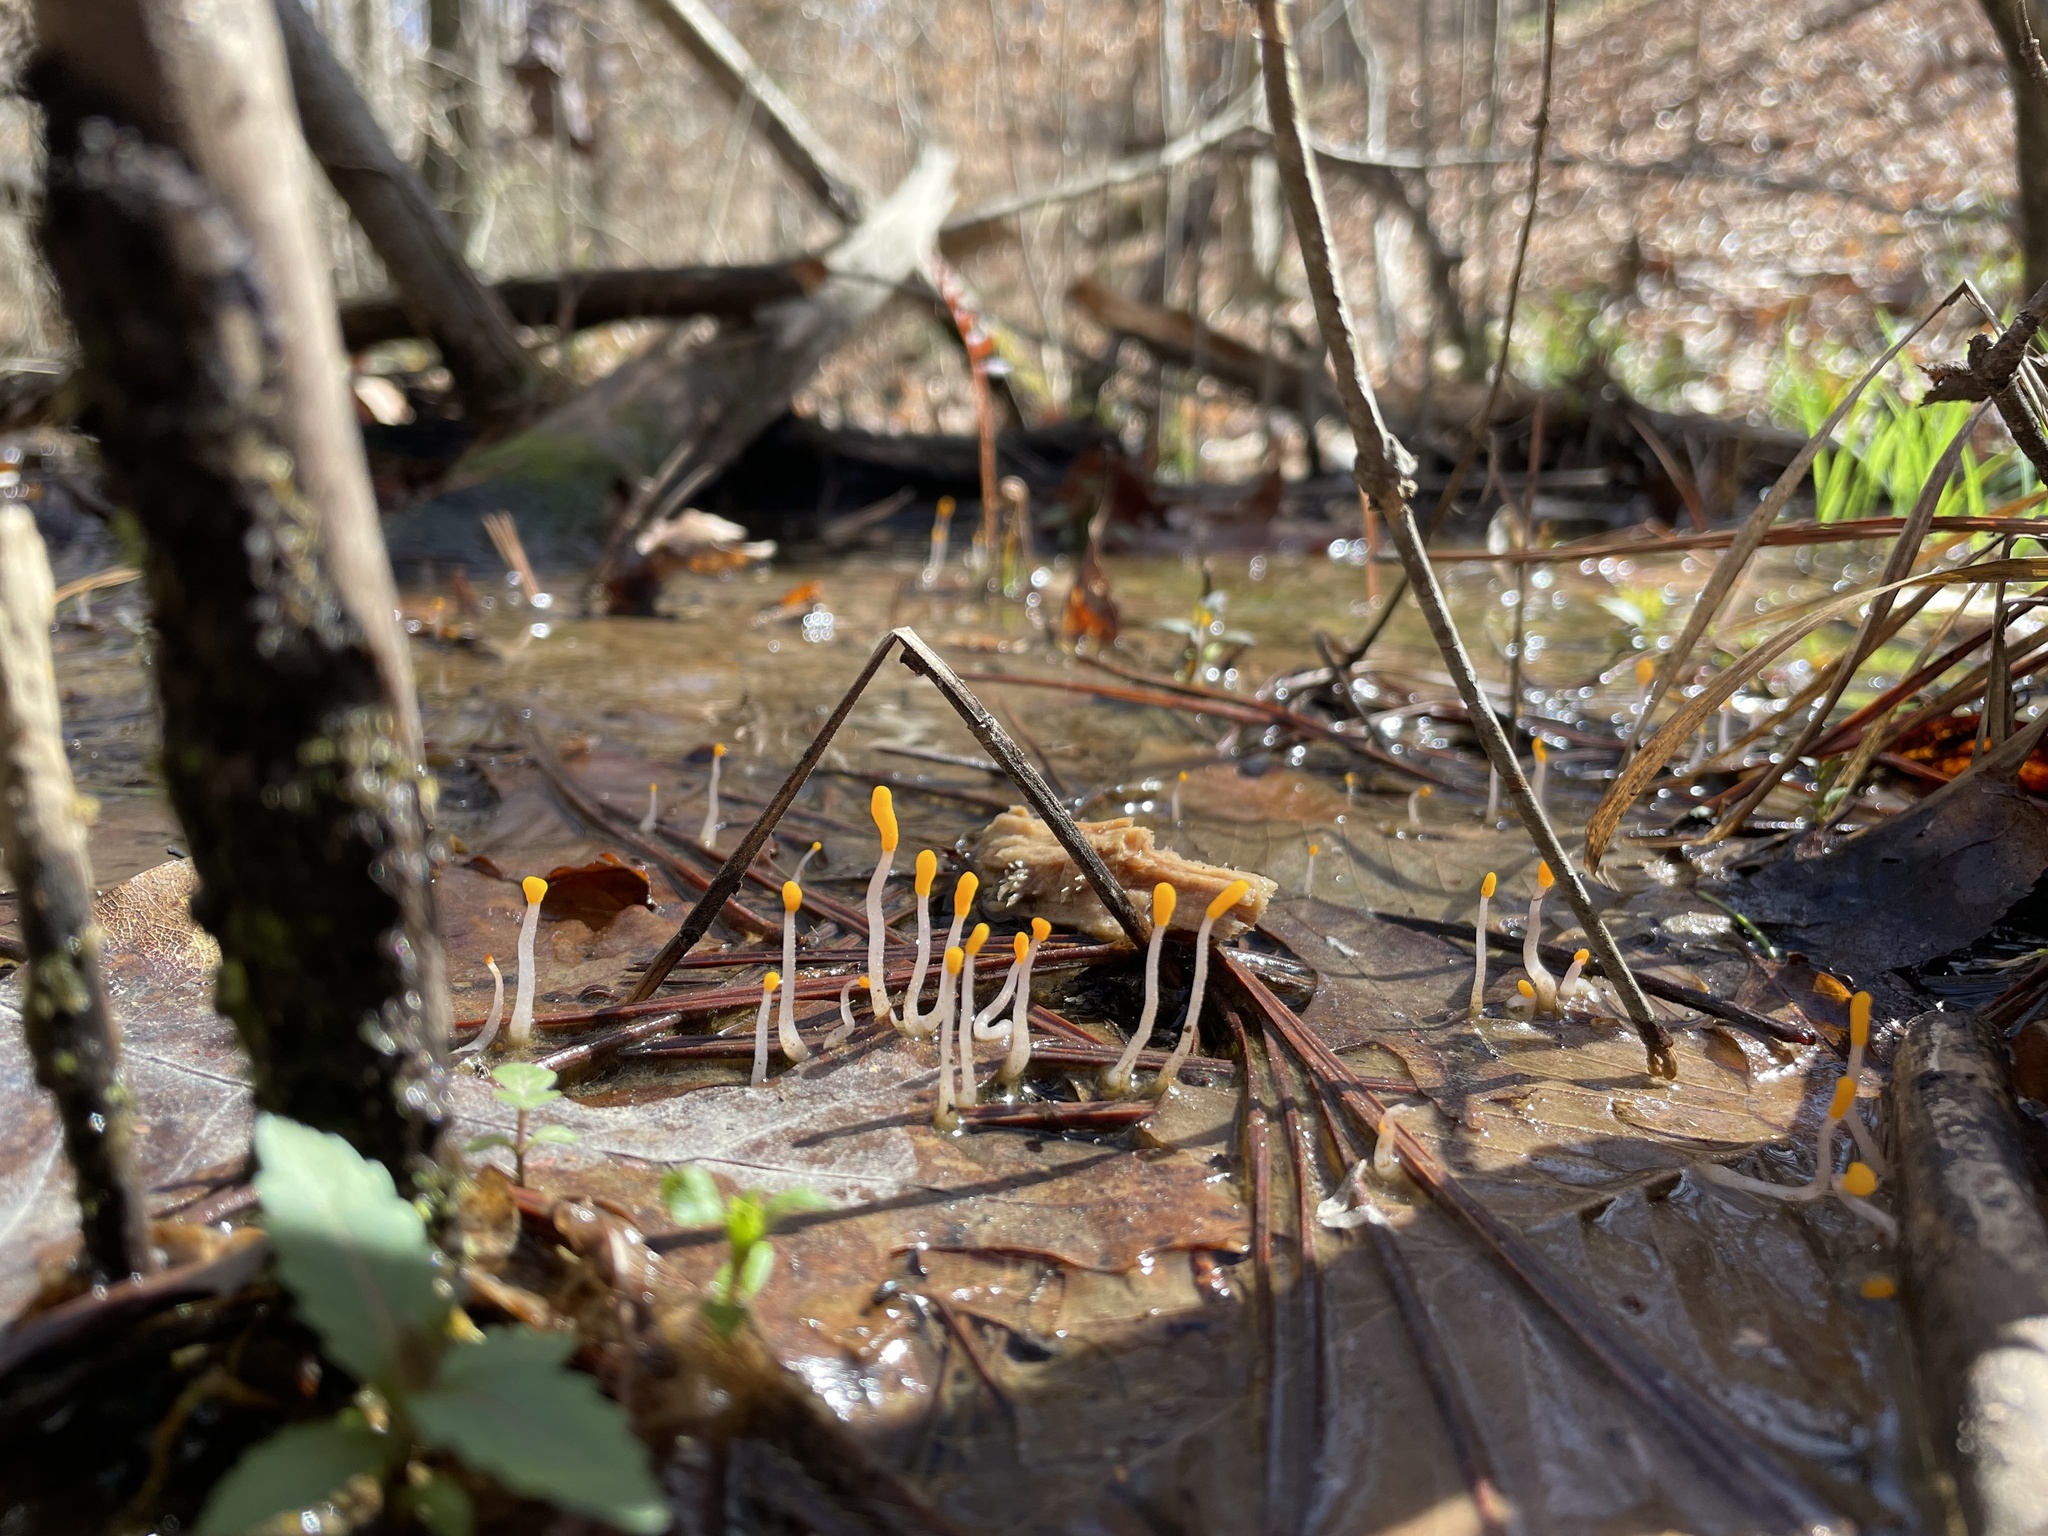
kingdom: Fungi
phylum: Ascomycota
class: Leotiomycetes
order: Helotiales
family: Sclerotiniaceae
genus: Mitrula
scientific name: Mitrula elegans
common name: Swamp beacon
